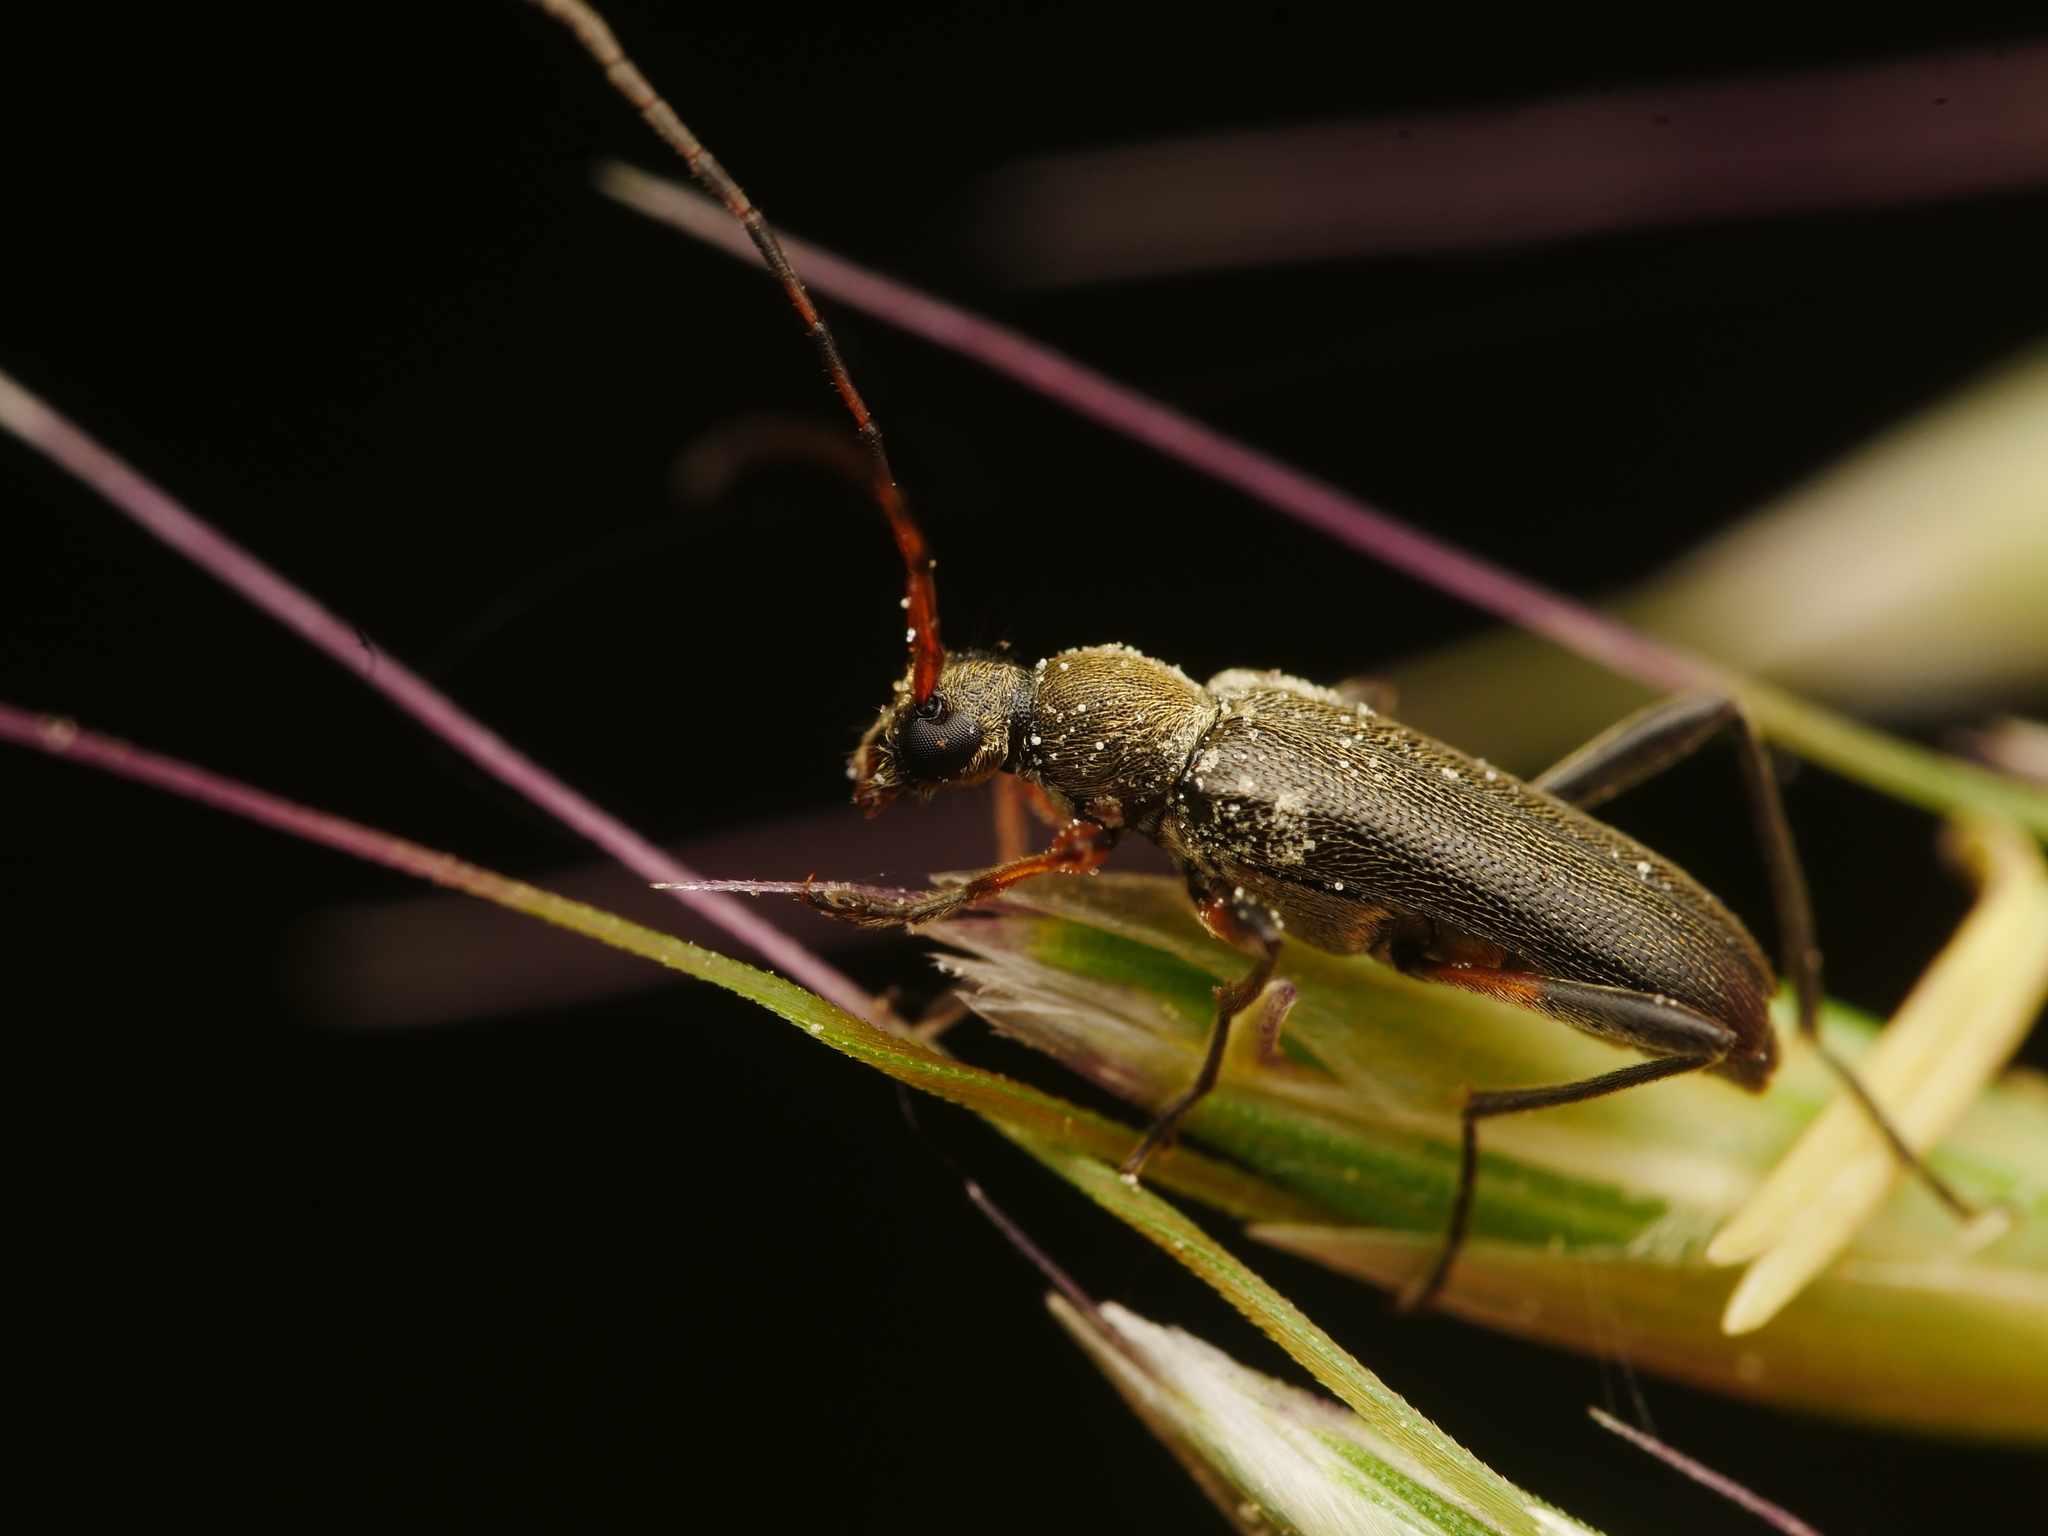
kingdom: Animalia
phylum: Arthropoda
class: Insecta
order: Coleoptera
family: Cerambycidae
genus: Grammoptera
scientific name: Grammoptera ruficornis
